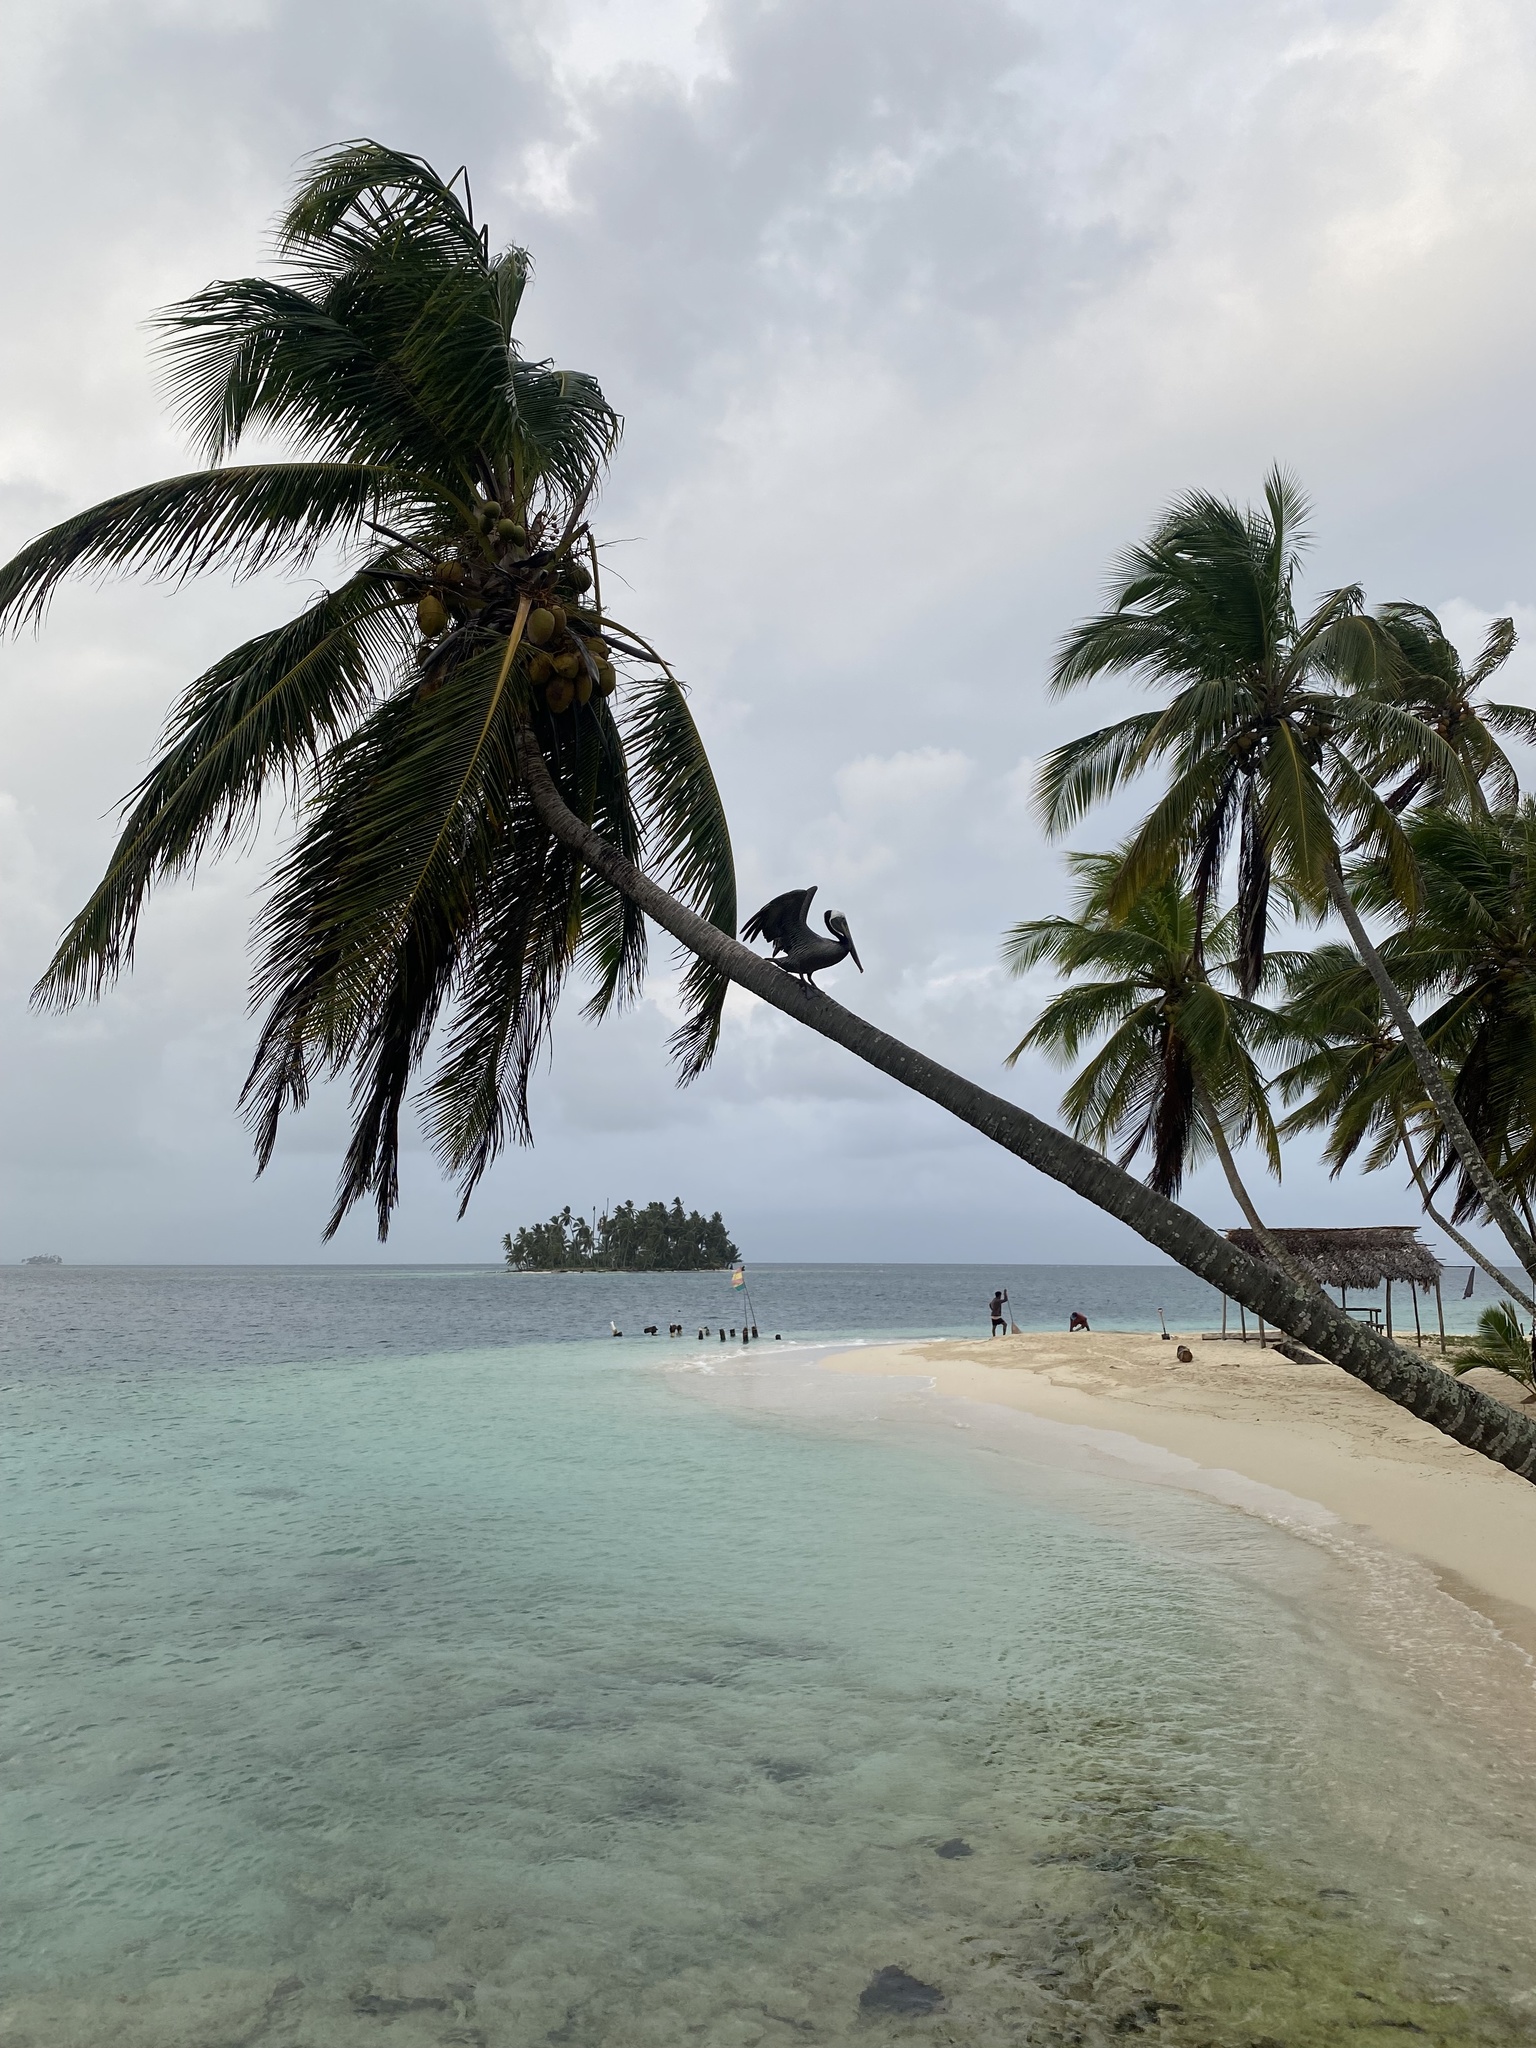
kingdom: Animalia
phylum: Chordata
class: Aves
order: Pelecaniformes
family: Pelecanidae
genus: Pelecanus
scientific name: Pelecanus occidentalis
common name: Brown pelican
